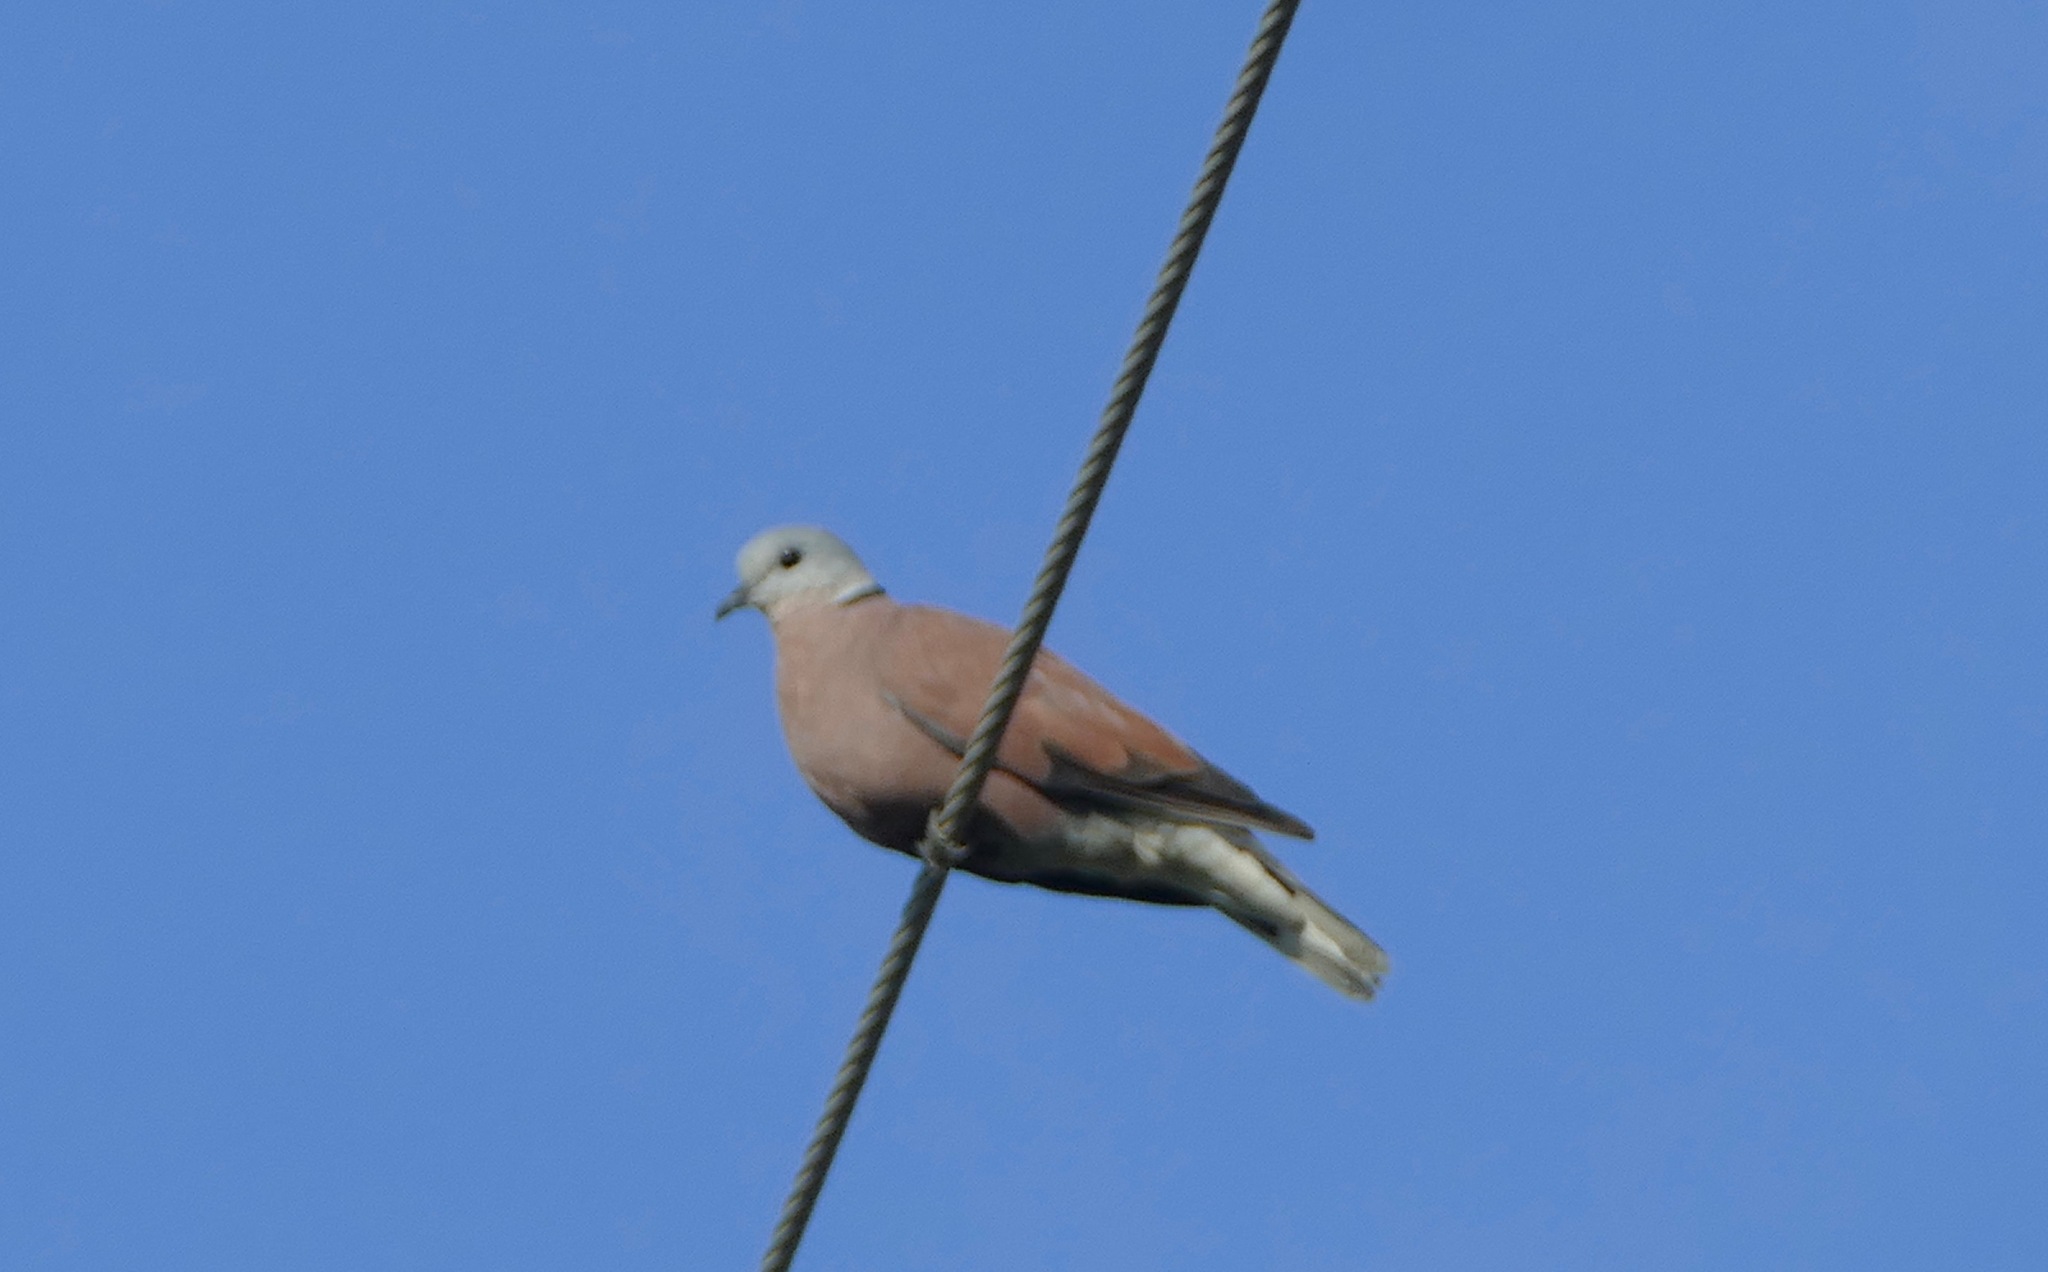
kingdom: Animalia
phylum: Chordata
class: Aves
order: Columbiformes
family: Columbidae
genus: Streptopelia
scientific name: Streptopelia tranquebarica
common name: Red turtle dove
